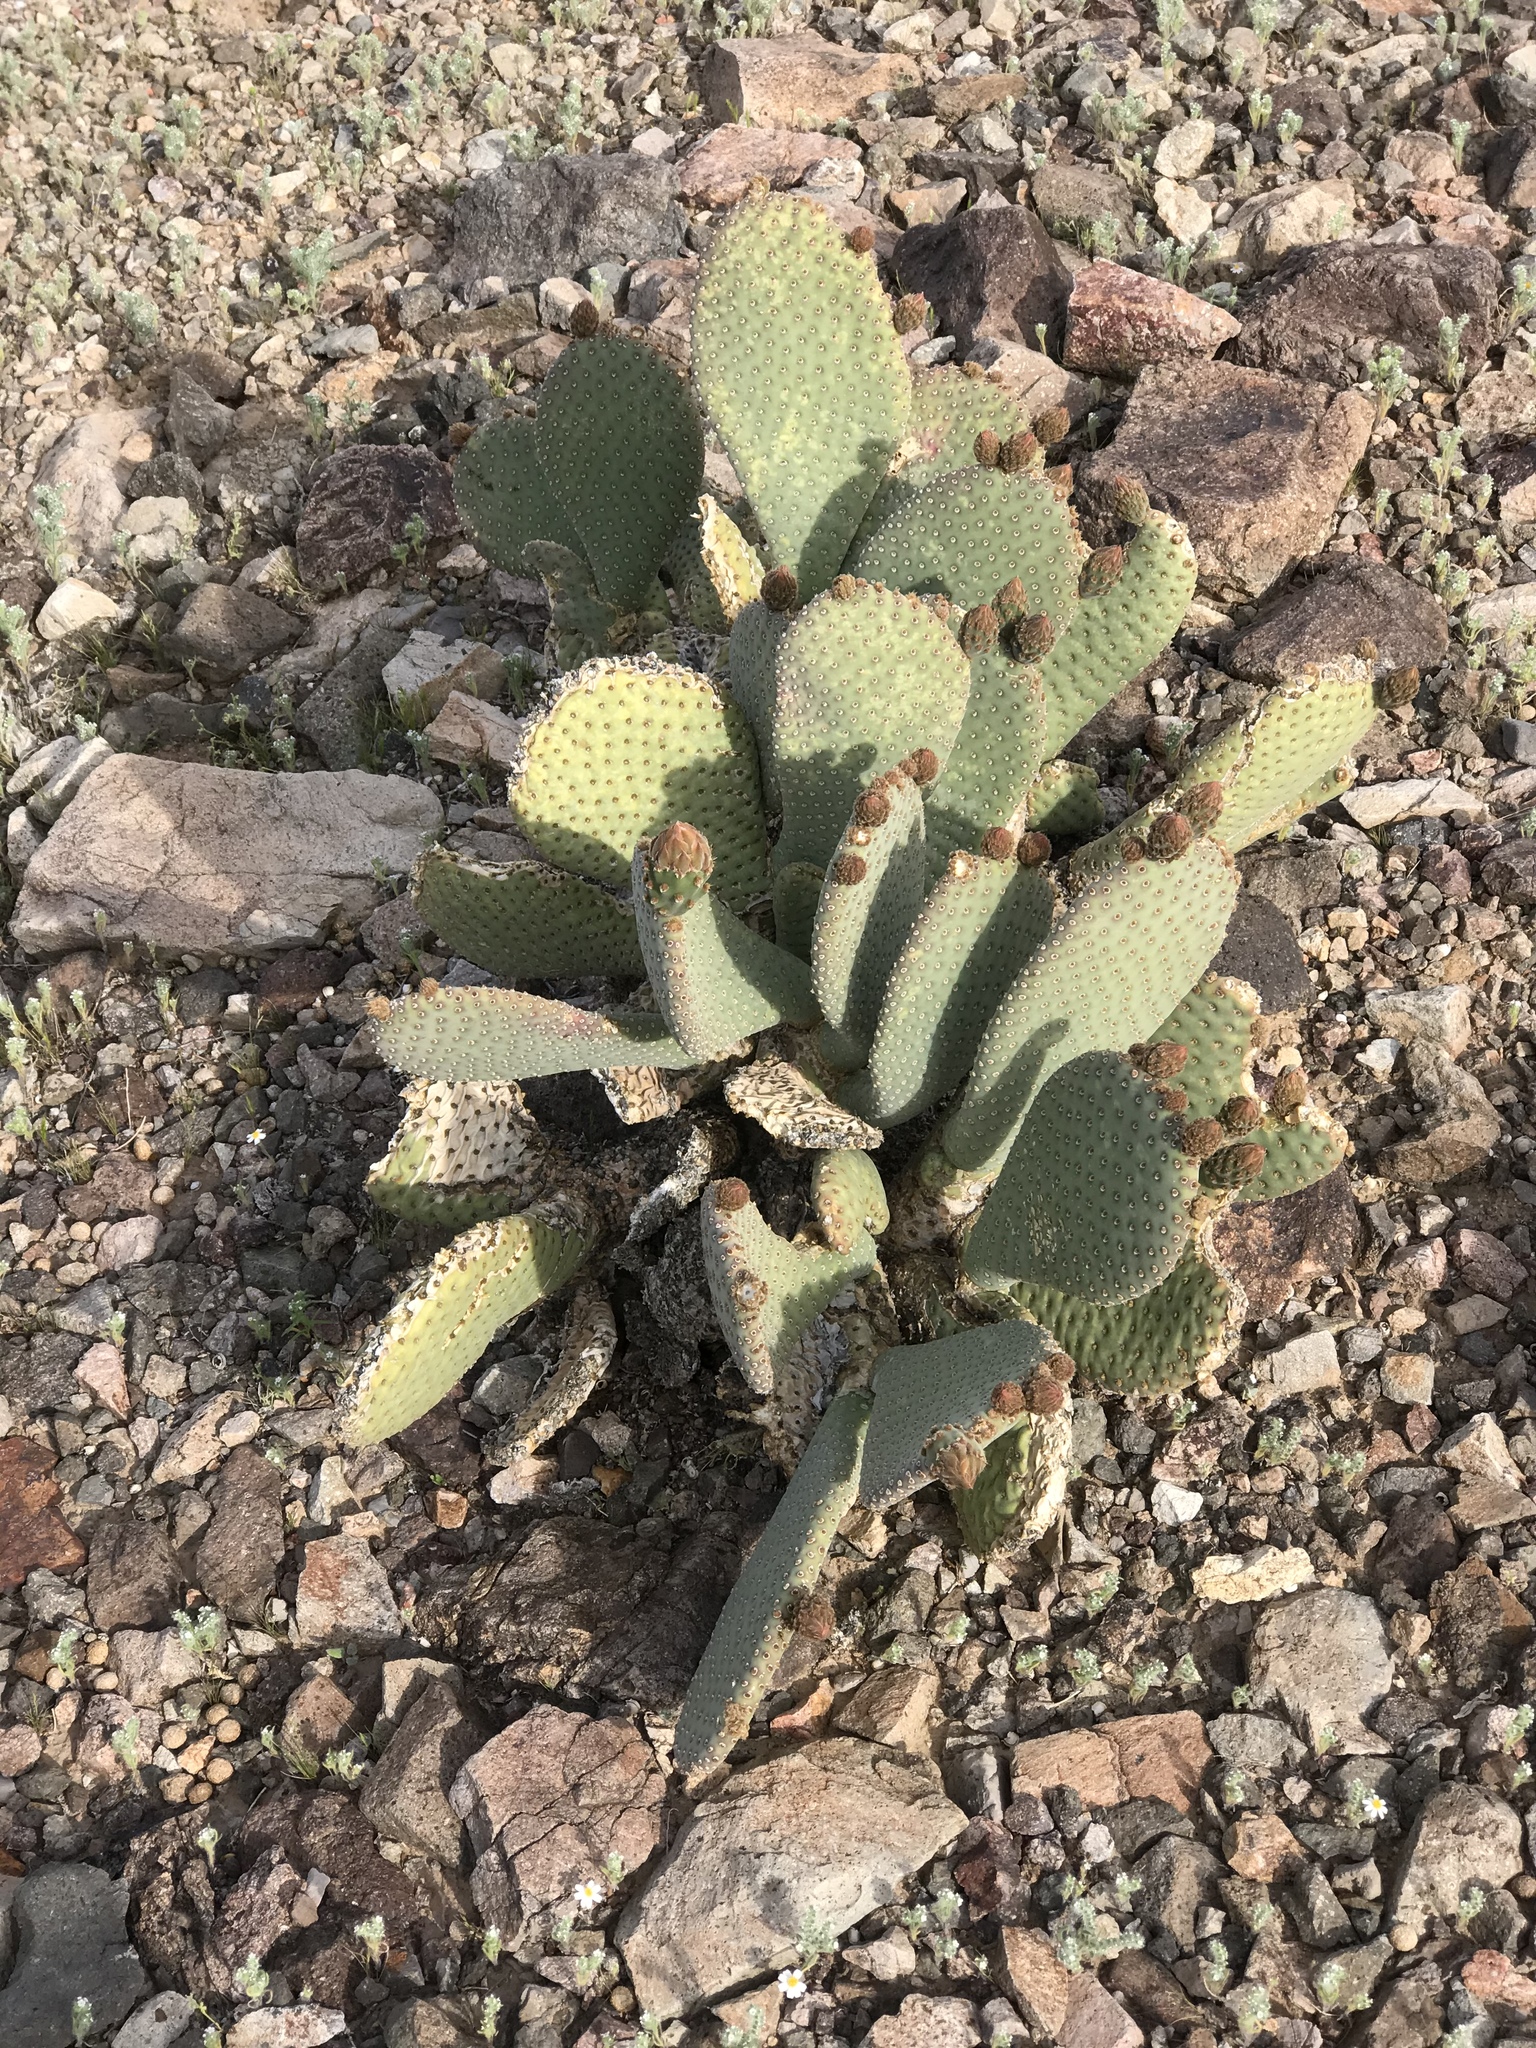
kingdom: Plantae
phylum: Tracheophyta
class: Magnoliopsida
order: Caryophyllales
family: Cactaceae
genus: Opuntia
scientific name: Opuntia basilaris
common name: Beavertail prickly-pear
